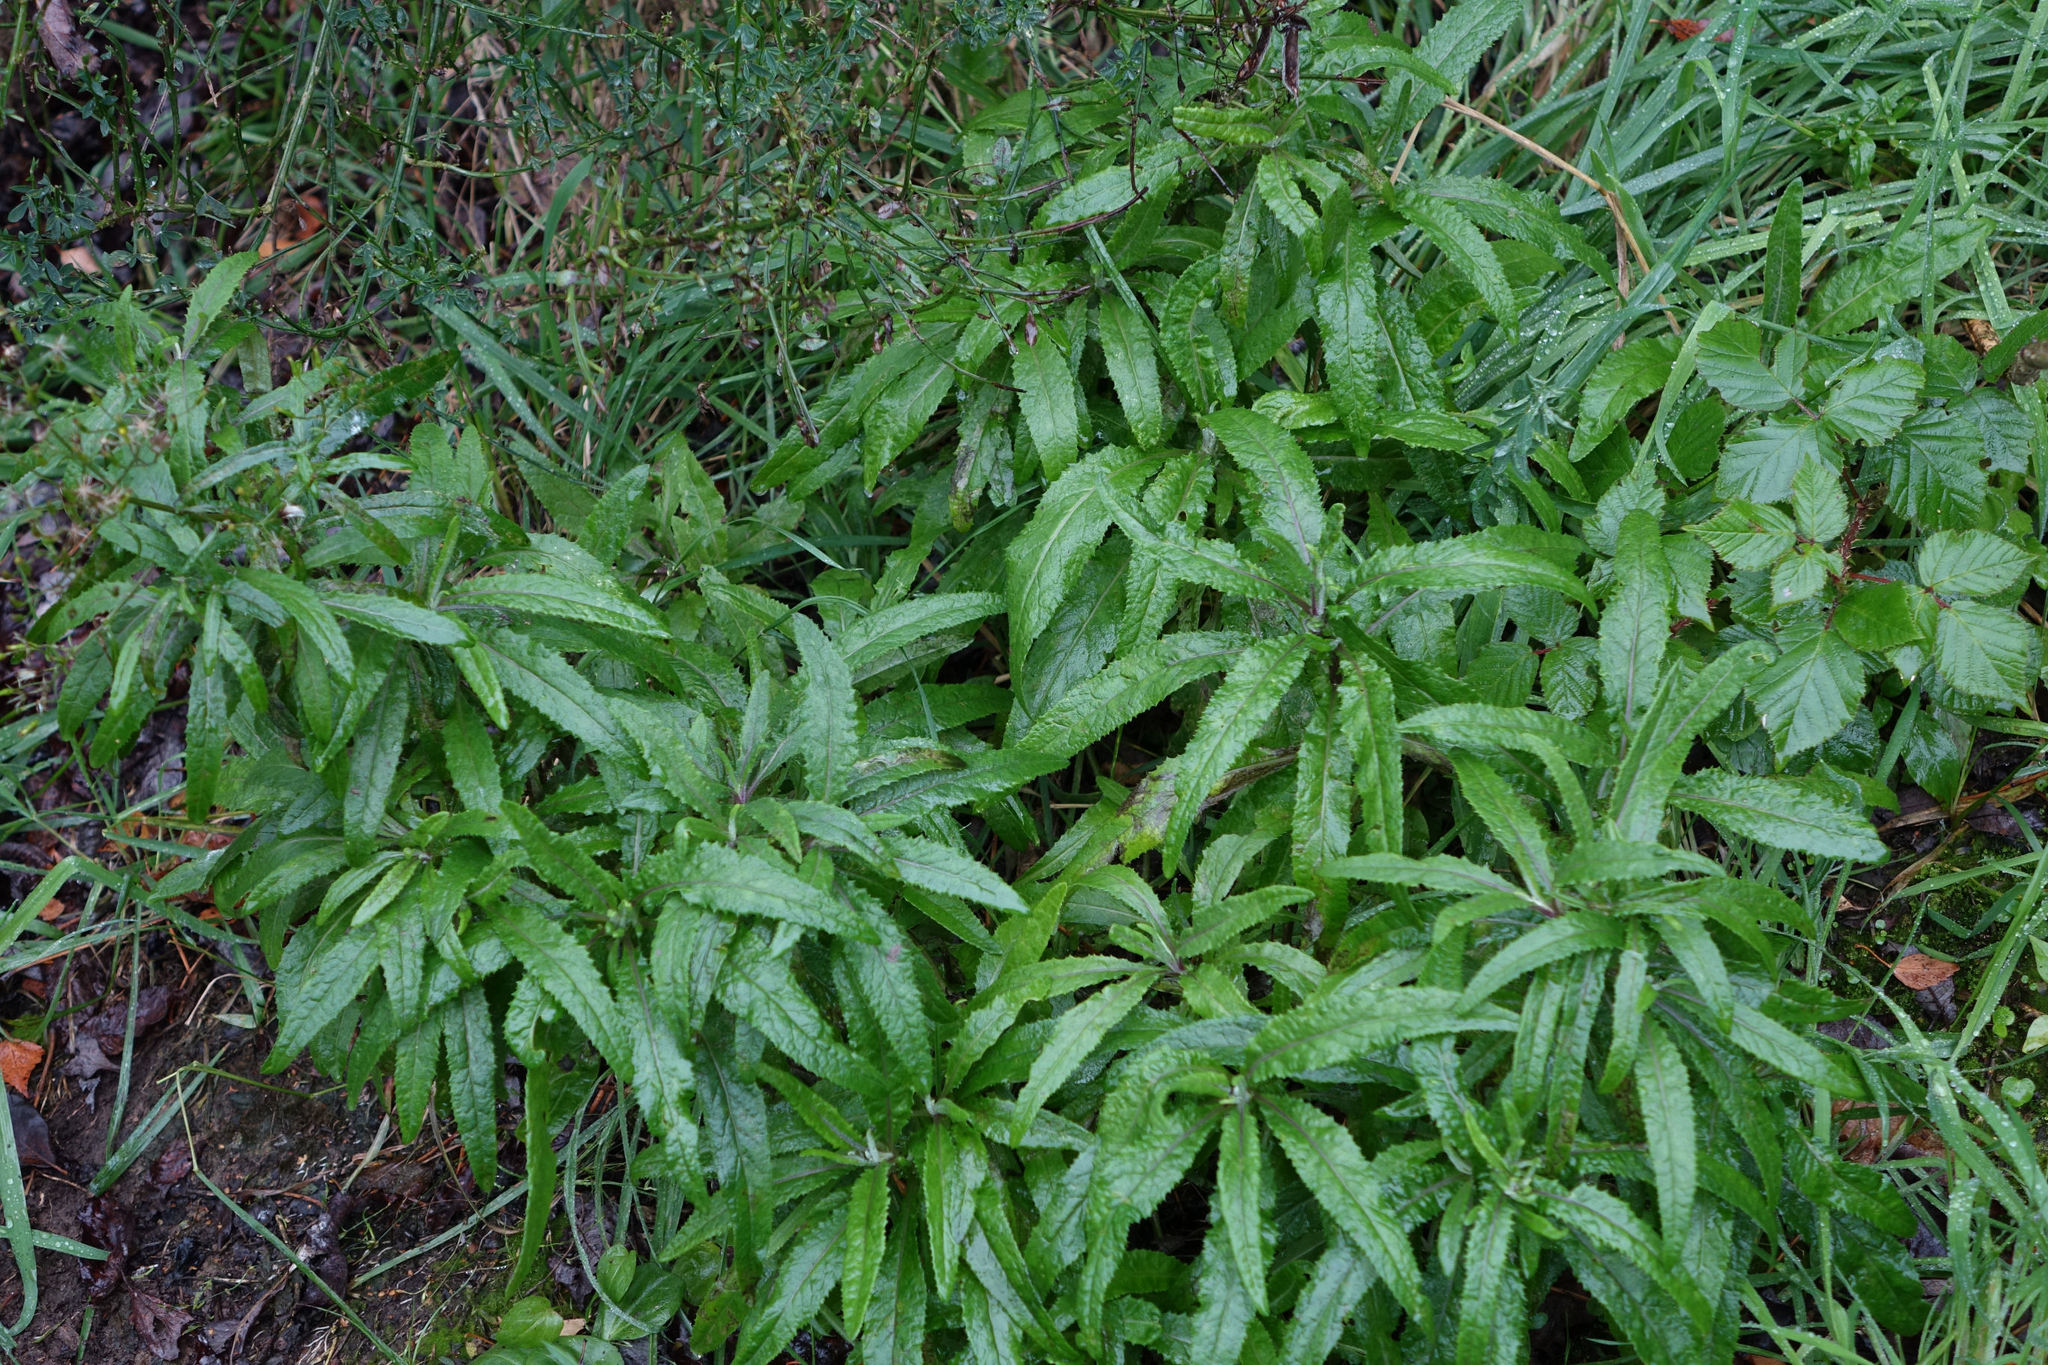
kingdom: Plantae
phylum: Tracheophyta
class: Magnoliopsida
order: Asterales
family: Asteraceae
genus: Senecio
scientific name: Senecio minimus
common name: Toothed fireweed
